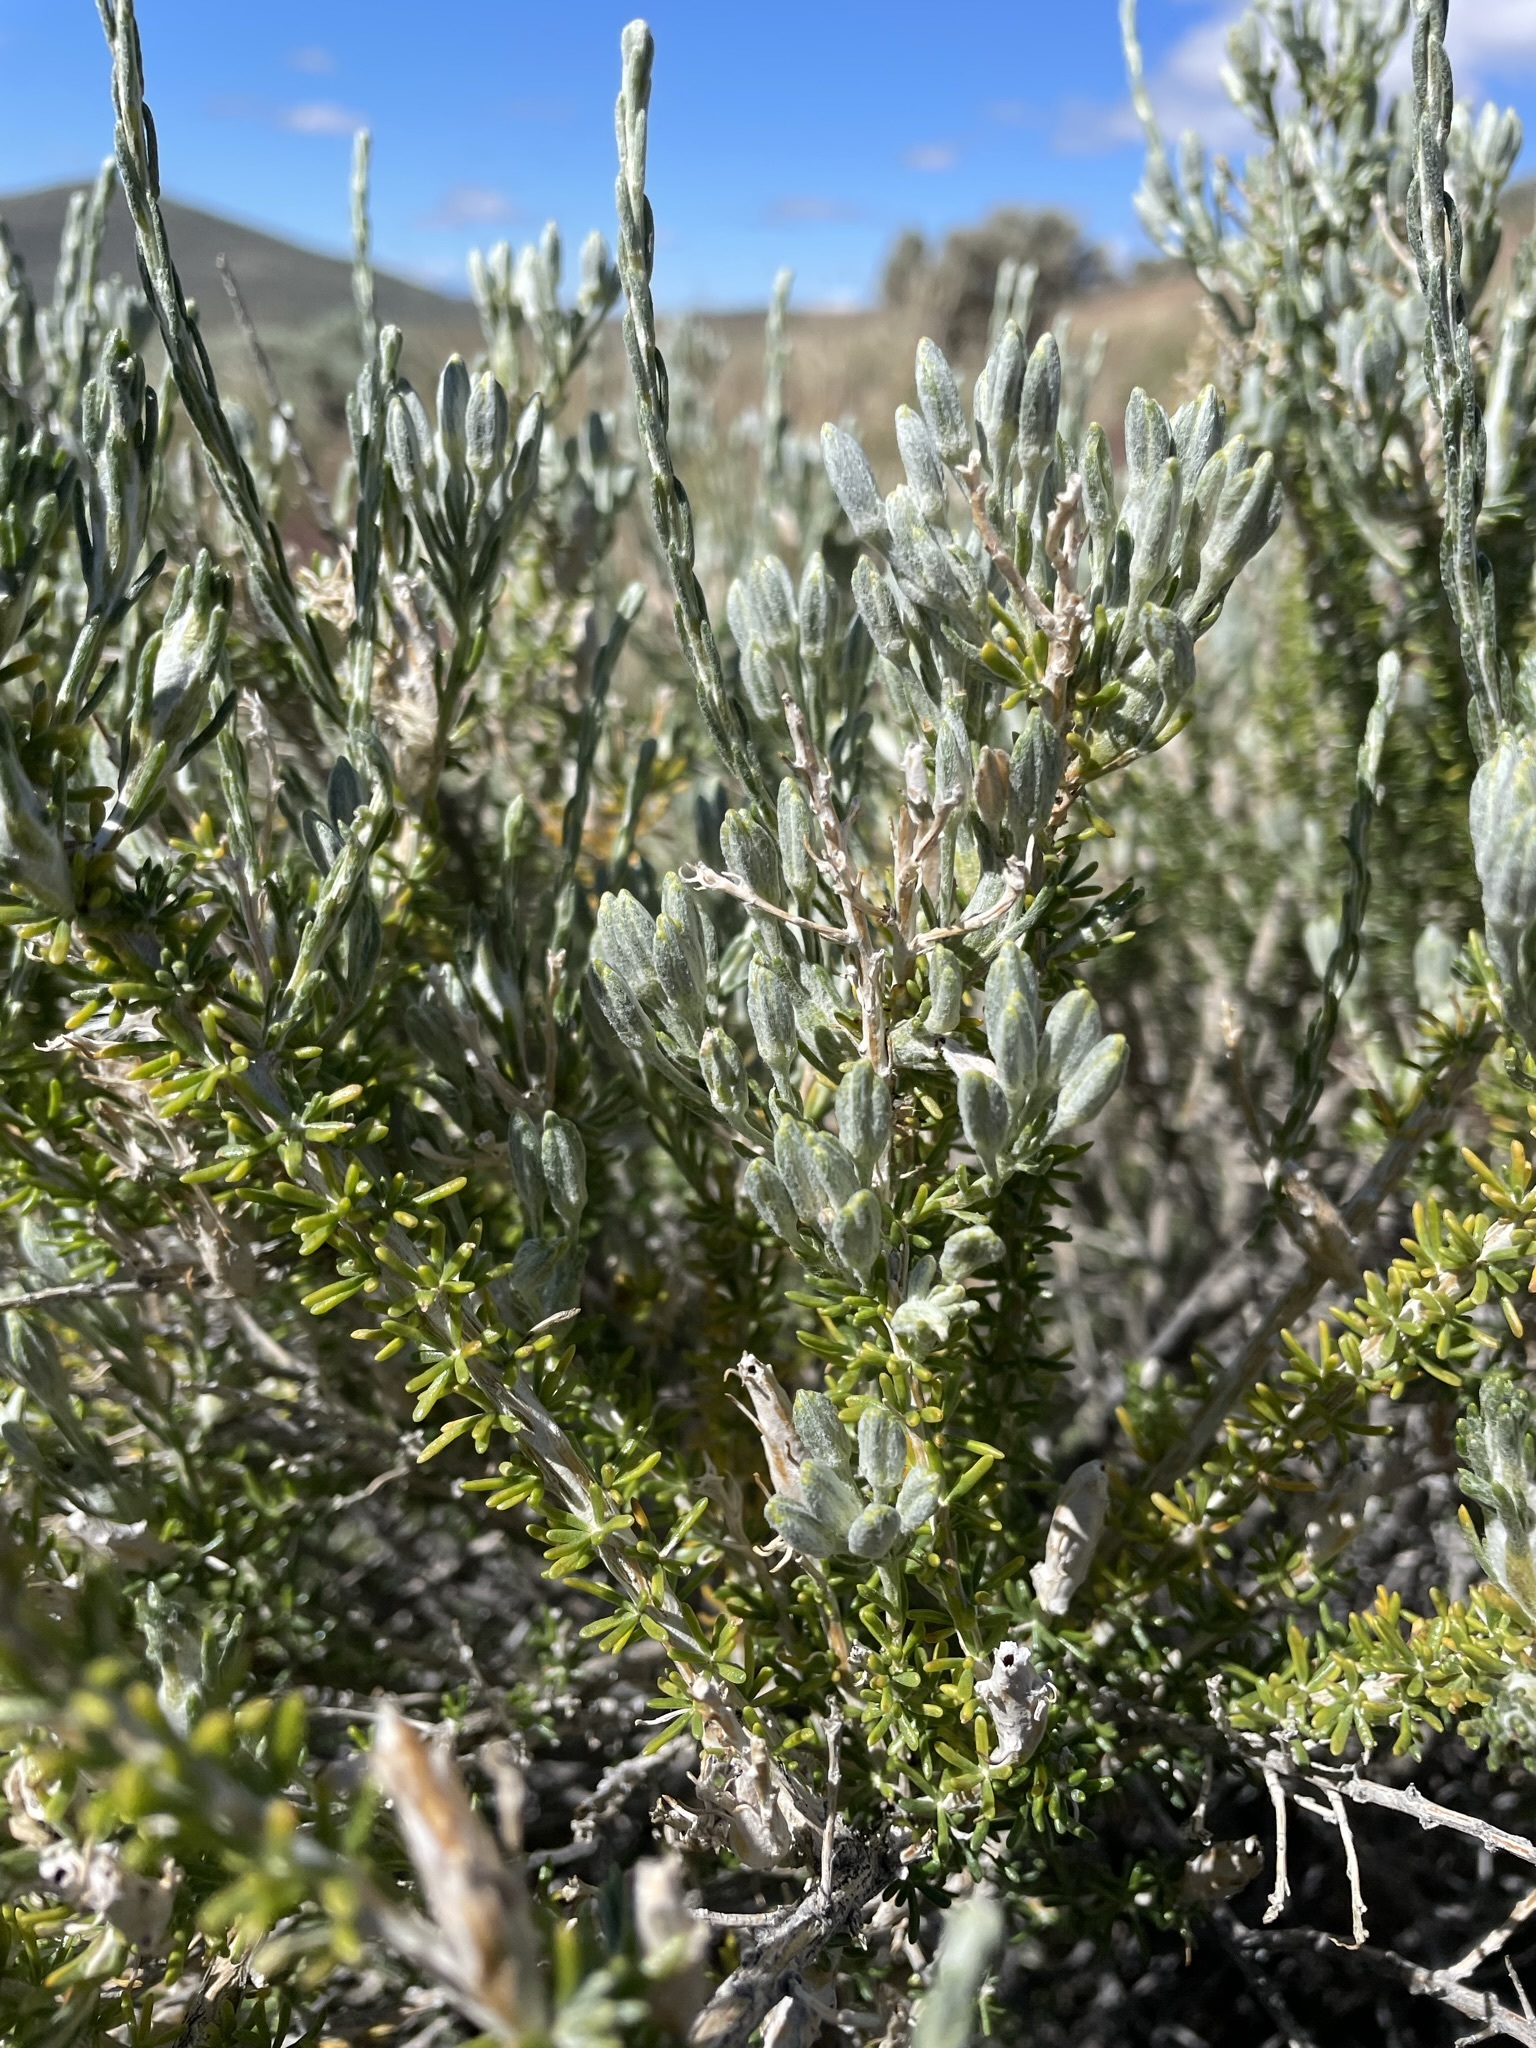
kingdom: Plantae
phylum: Tracheophyta
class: Magnoliopsida
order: Asterales
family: Asteraceae
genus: Tetradymia
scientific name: Tetradymia glabrata
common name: Smooth tetradymia
